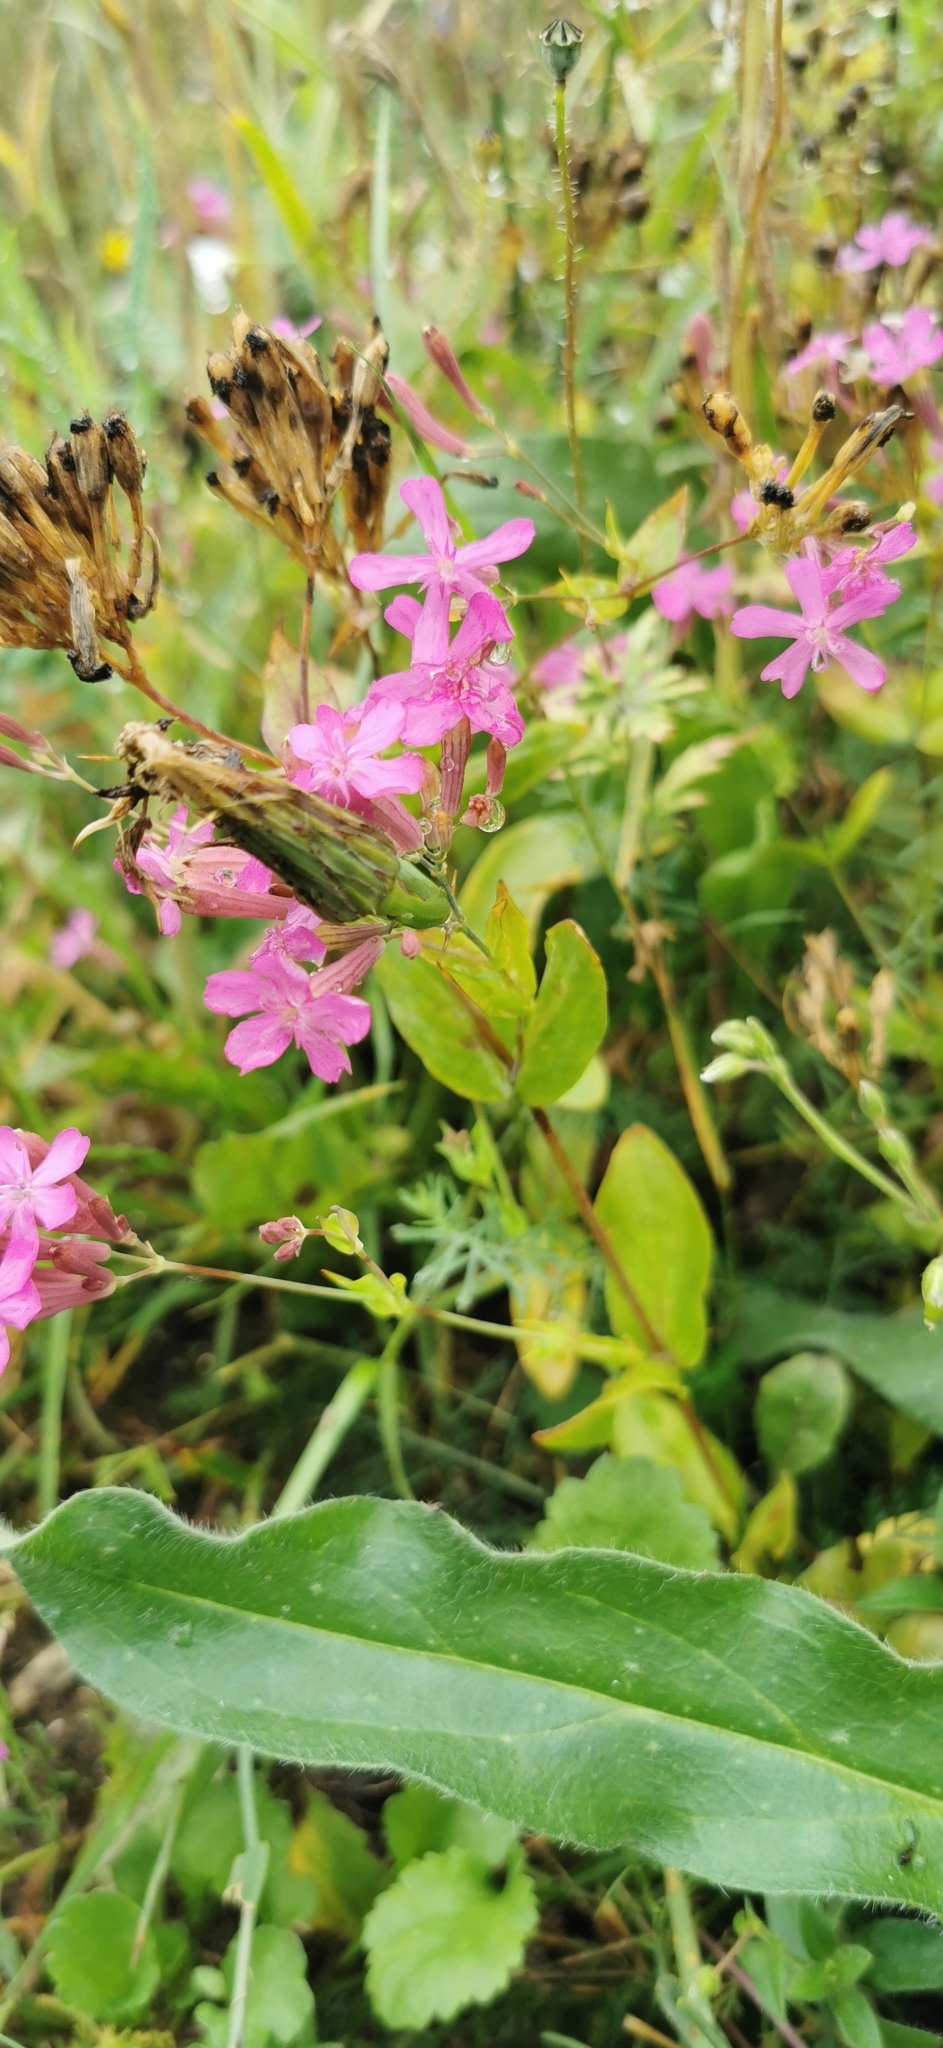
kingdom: Plantae
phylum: Tracheophyta
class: Magnoliopsida
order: Caryophyllales
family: Caryophyllaceae
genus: Atocion
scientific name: Atocion armeria
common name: Sweet william catchfly
